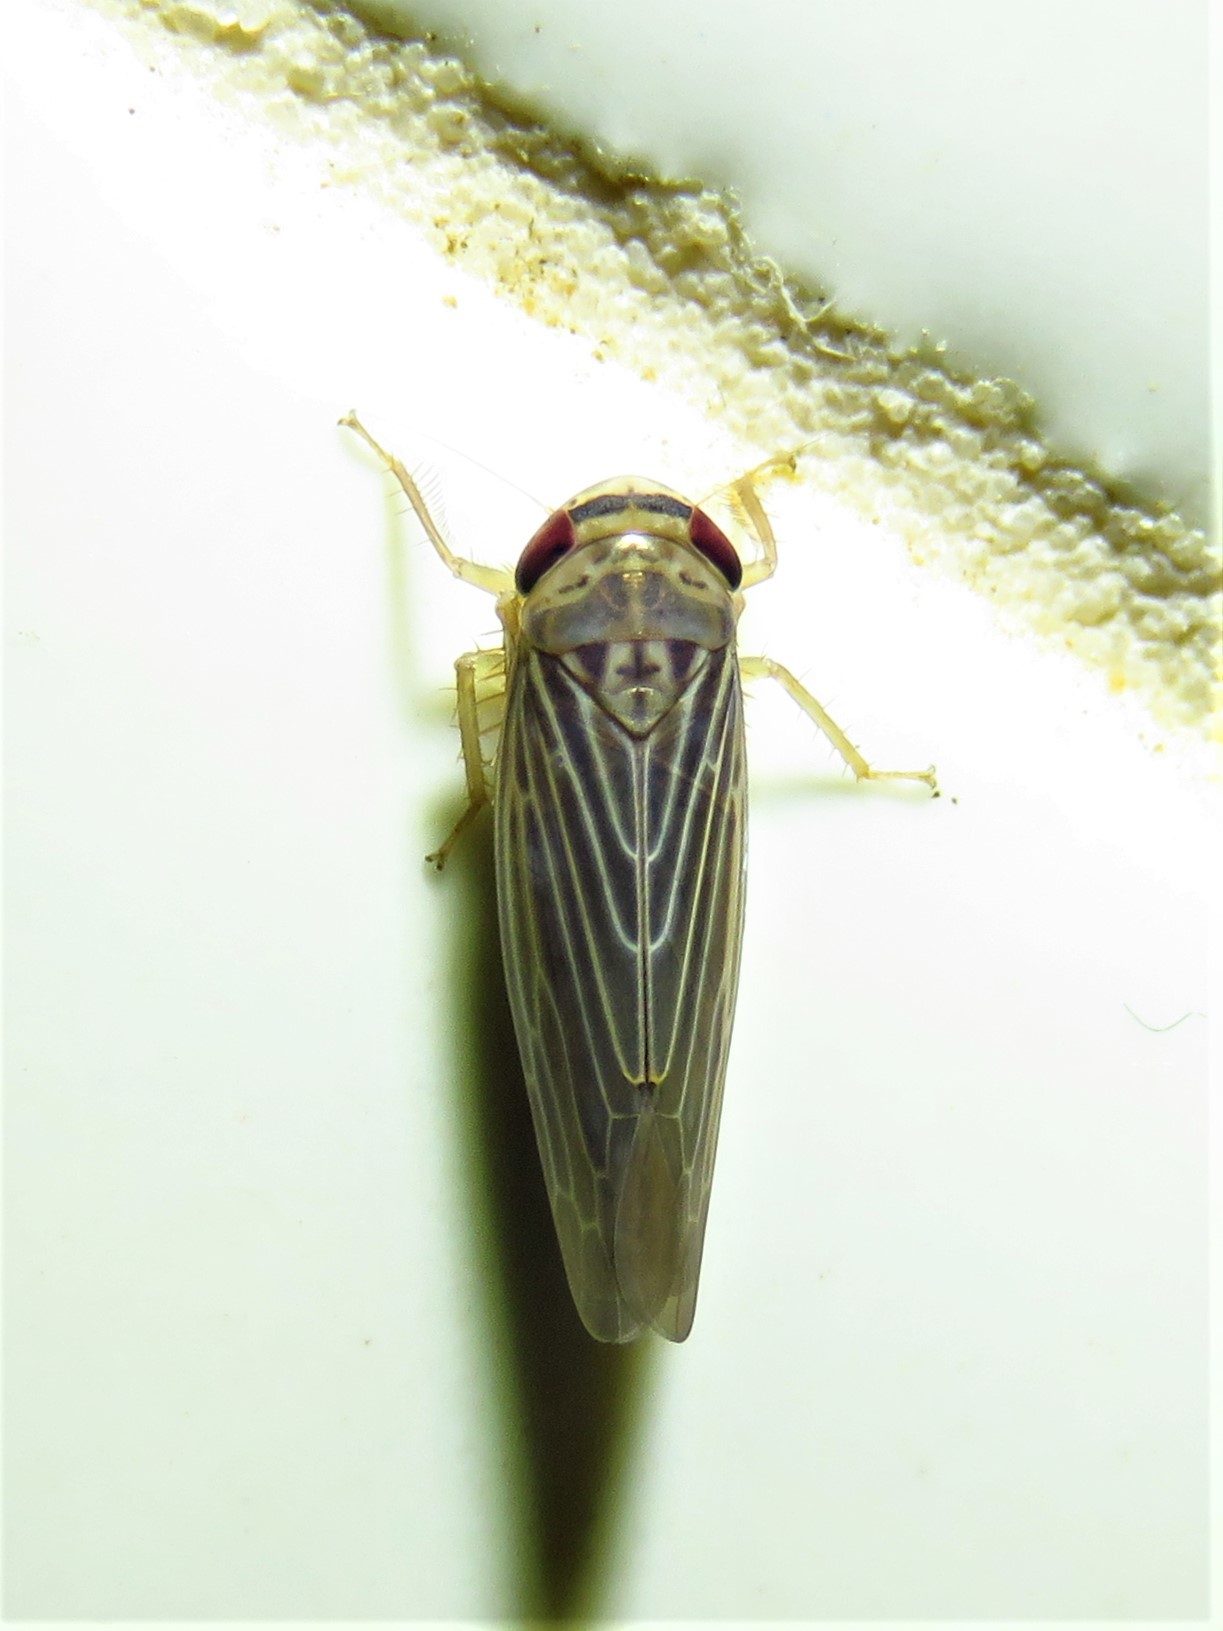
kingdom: Animalia
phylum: Arthropoda
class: Insecta
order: Hemiptera
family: Cicadellidae
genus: Chlorotettix
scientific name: Chlorotettix necopinus
